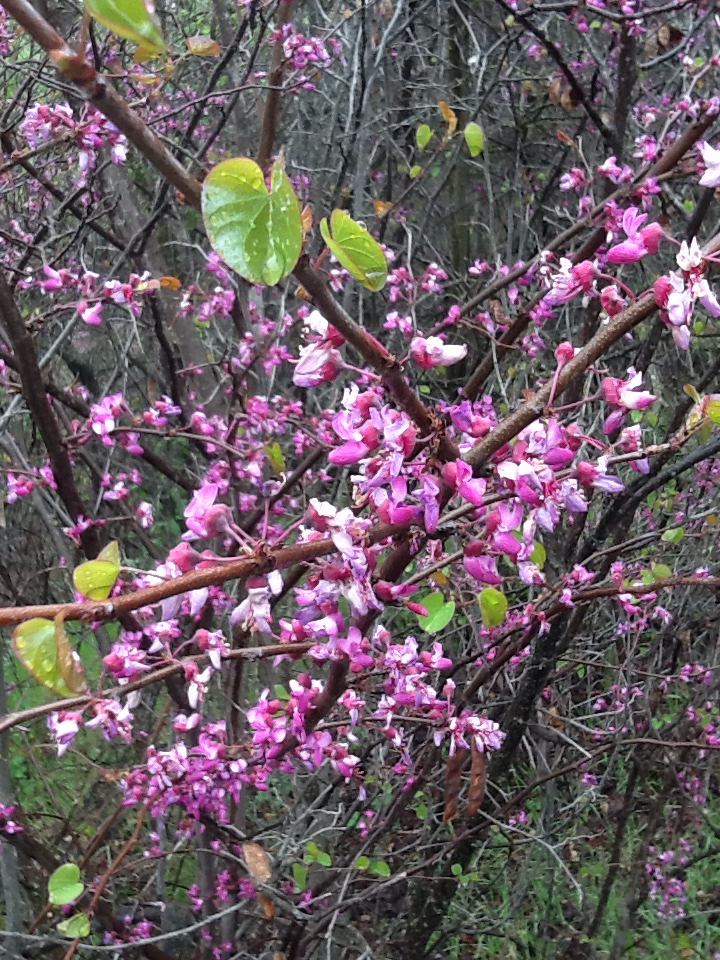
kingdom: Plantae
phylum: Tracheophyta
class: Magnoliopsida
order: Fabales
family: Fabaceae
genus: Cercis
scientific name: Cercis occidentalis
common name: California redbud
